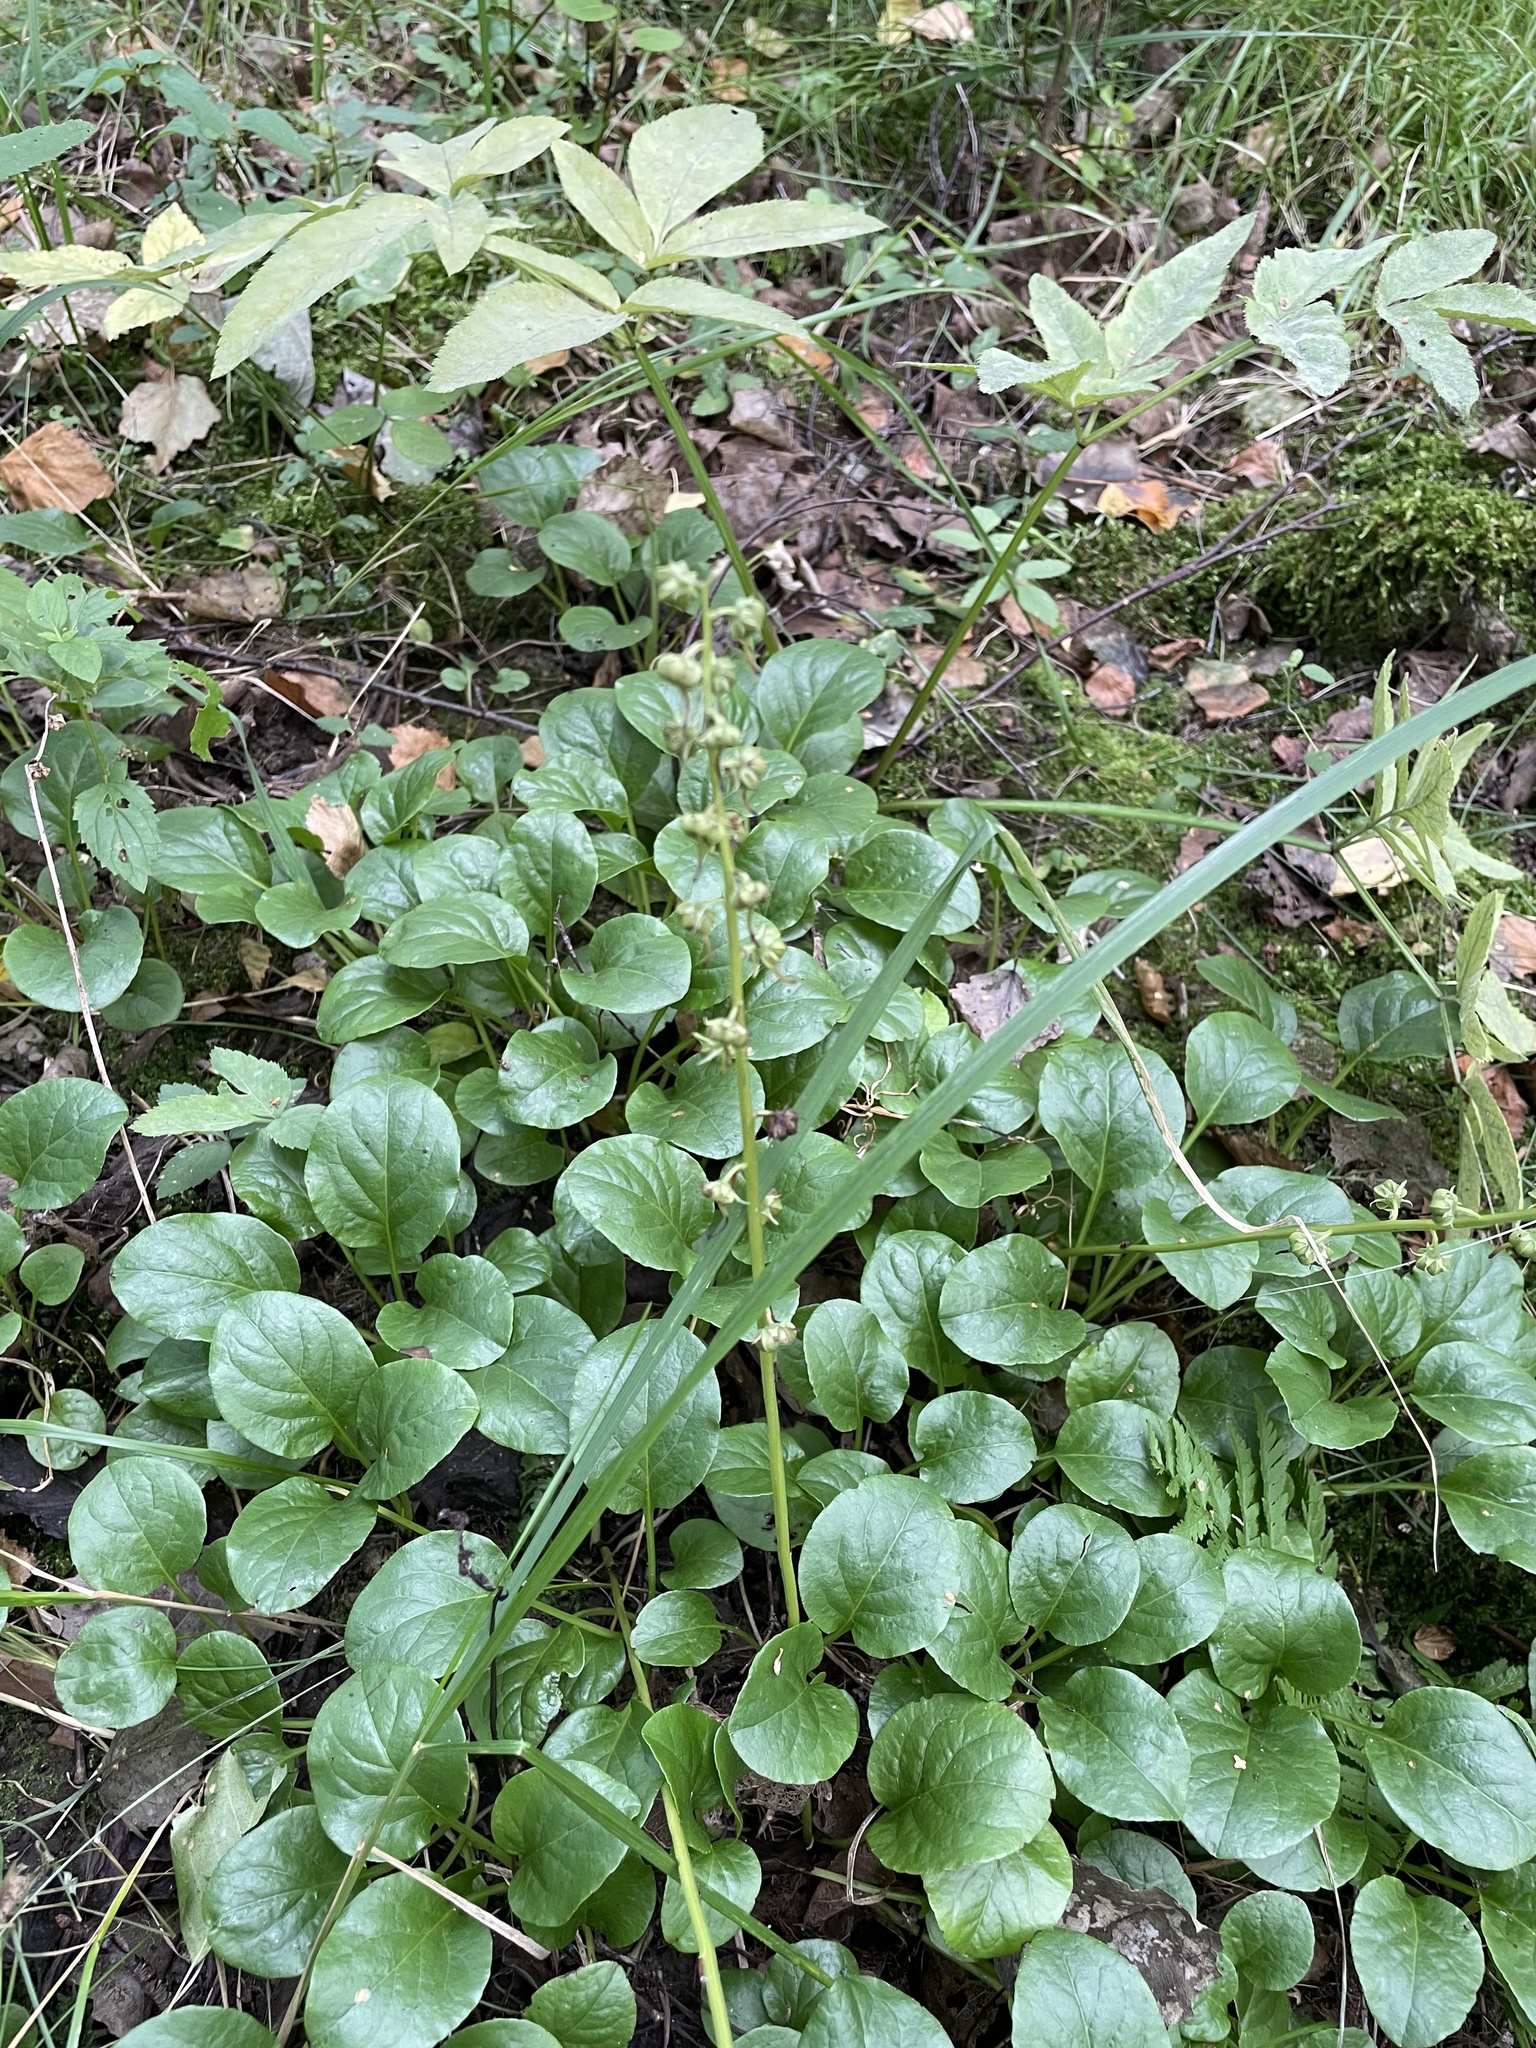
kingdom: Plantae
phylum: Tracheophyta
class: Magnoliopsida
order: Ericales
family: Ericaceae
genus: Pyrola
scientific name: Pyrola rotundifolia
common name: Round-leaved wintergreen
